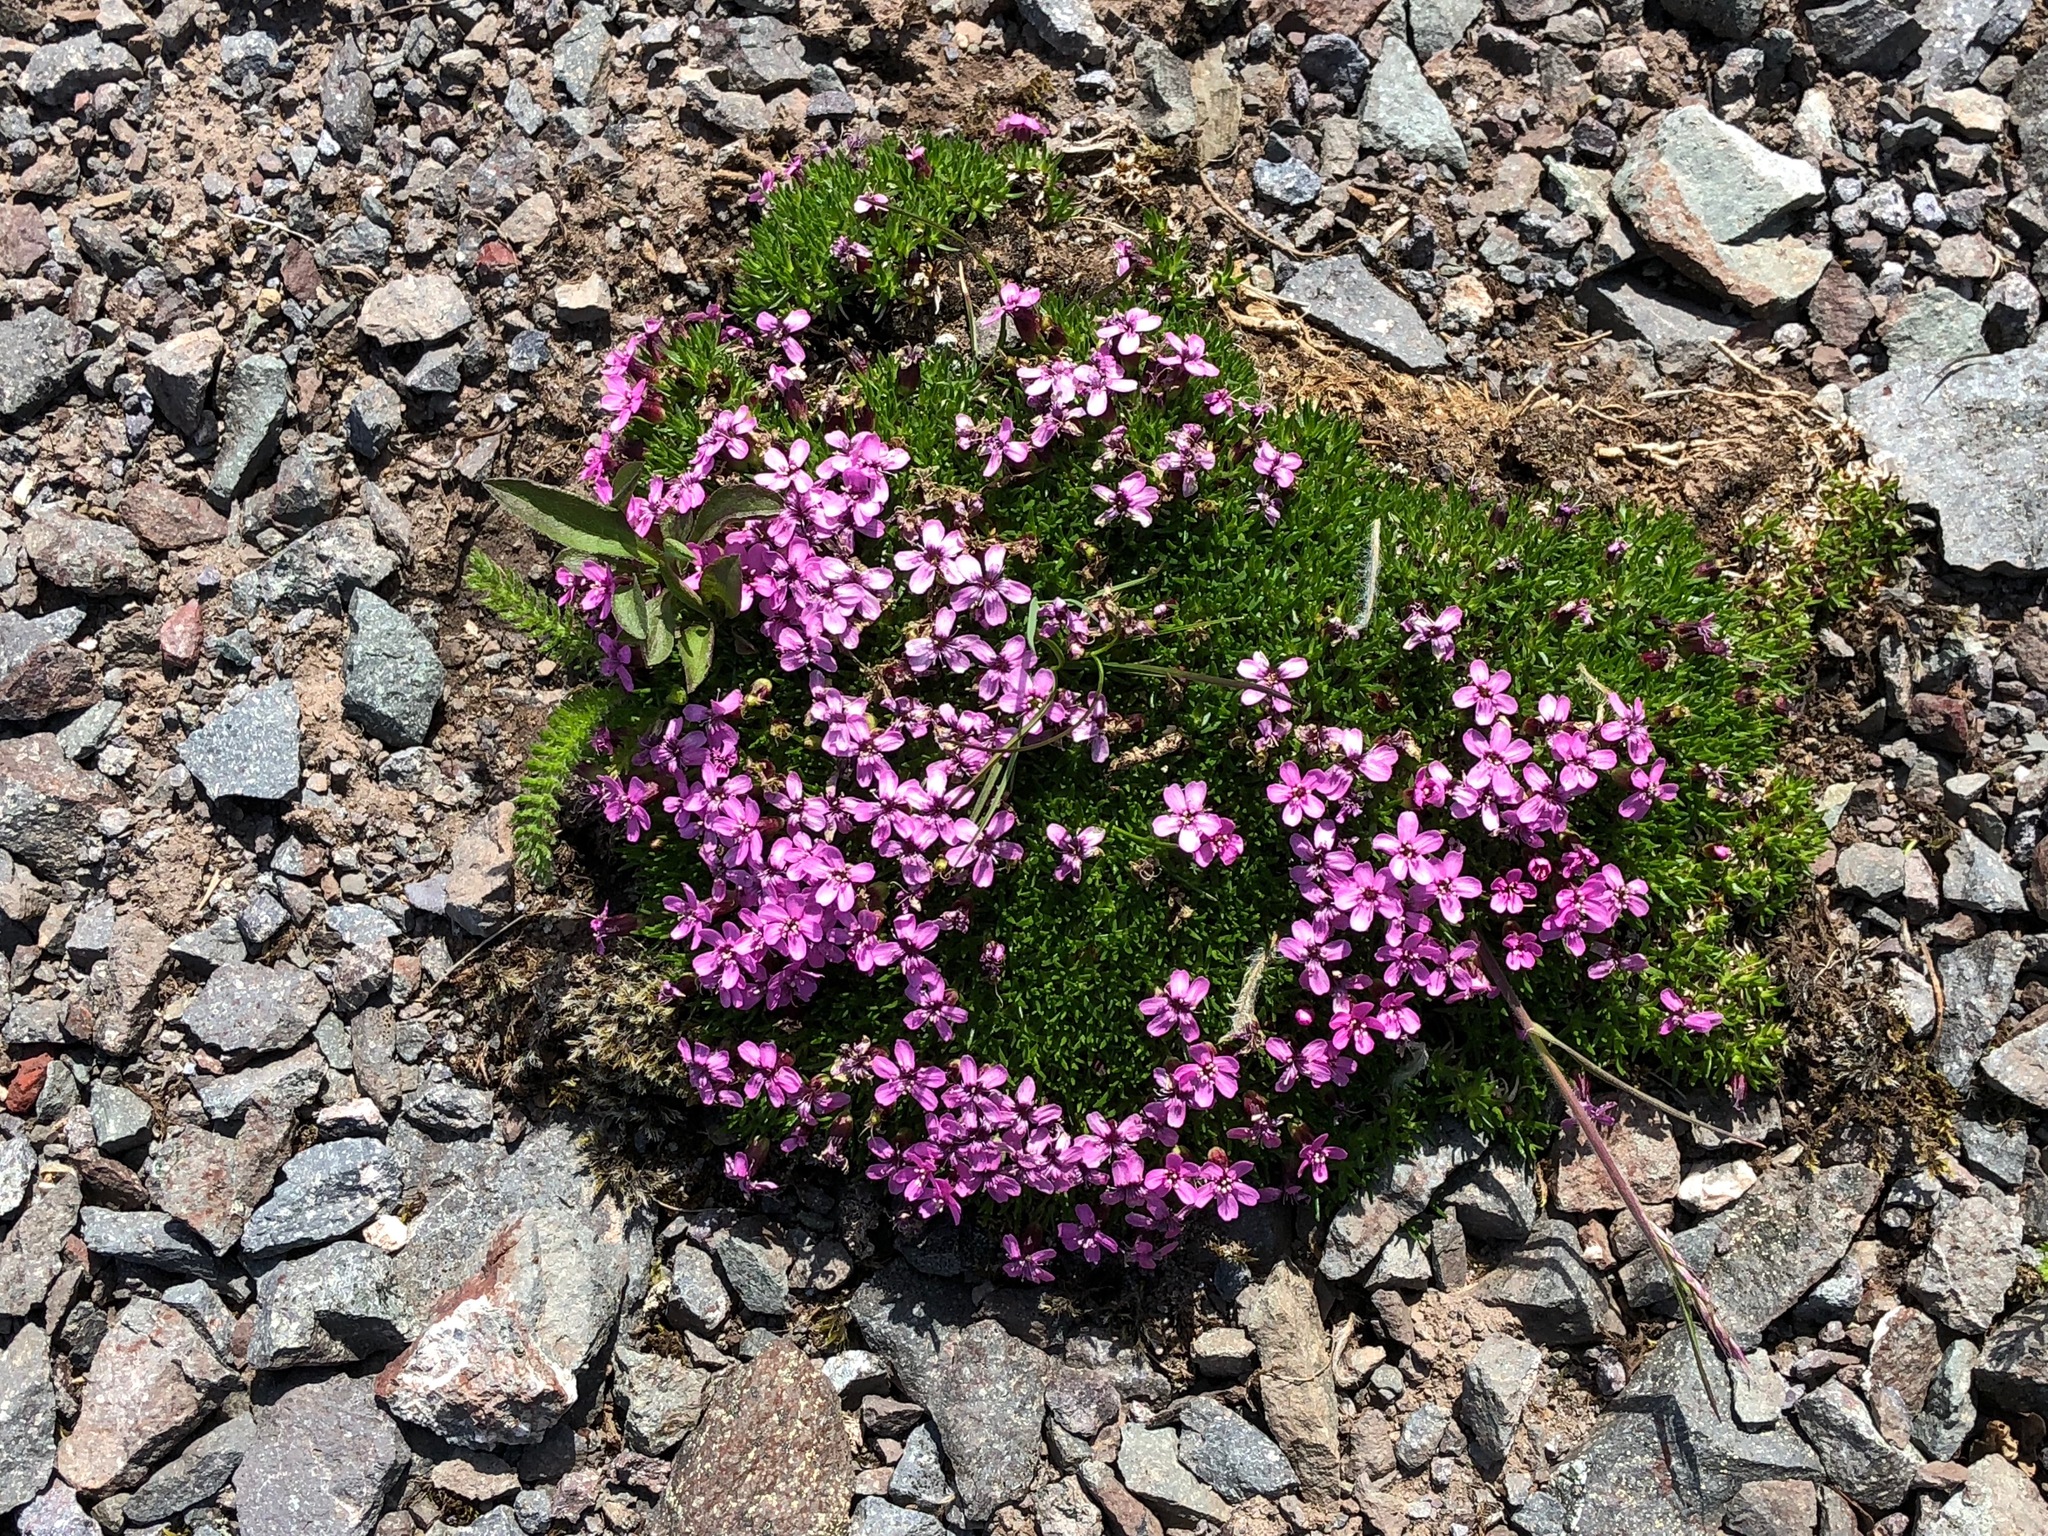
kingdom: Plantae
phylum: Tracheophyta
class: Magnoliopsida
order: Caryophyllales
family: Caryophyllaceae
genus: Silene
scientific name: Silene acaulis
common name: Moss campion
